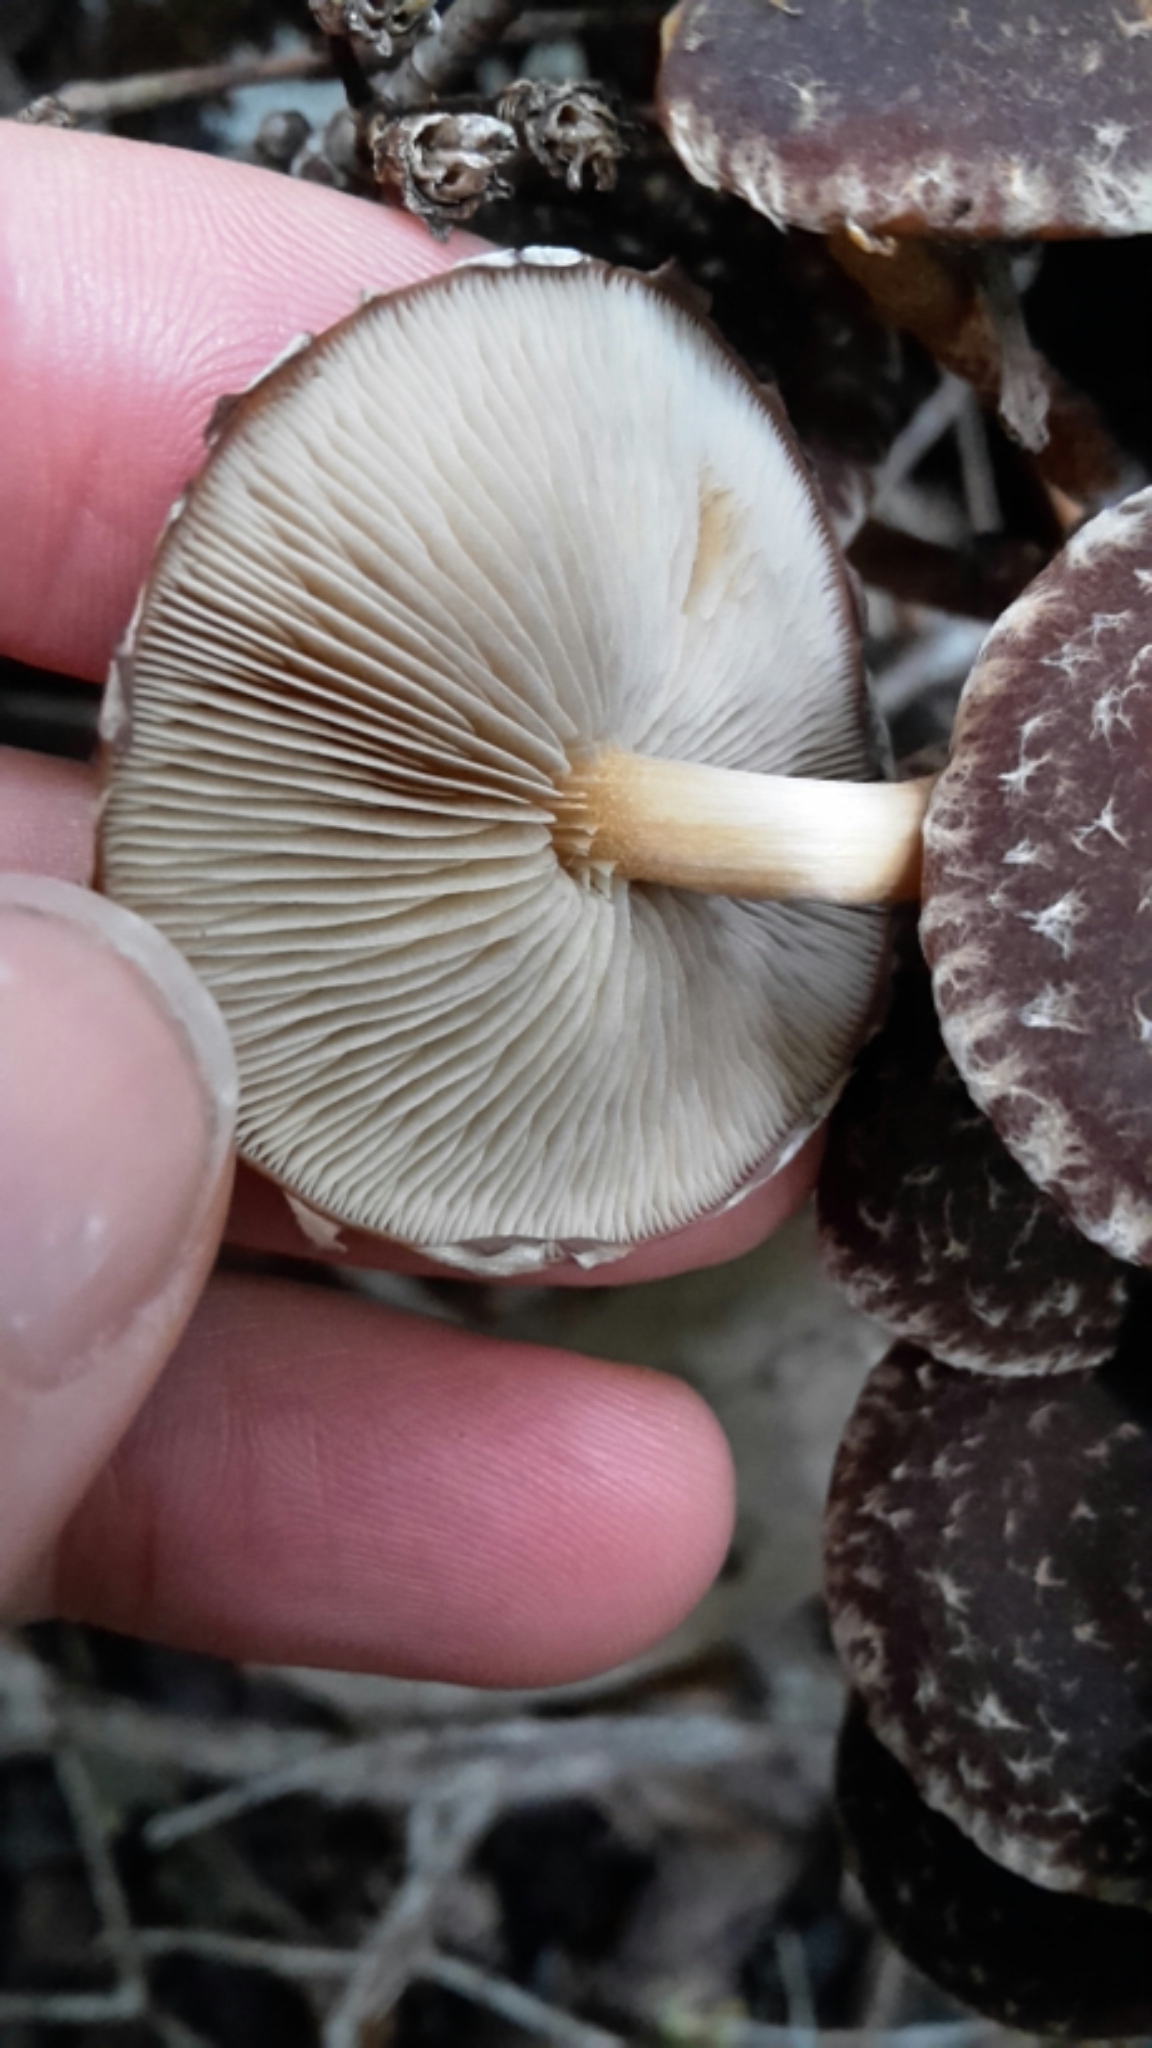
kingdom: Fungi
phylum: Basidiomycota
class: Agaricomycetes
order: Agaricales
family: Strophariaceae
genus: Hypholoma
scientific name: Hypholoma brunneum
